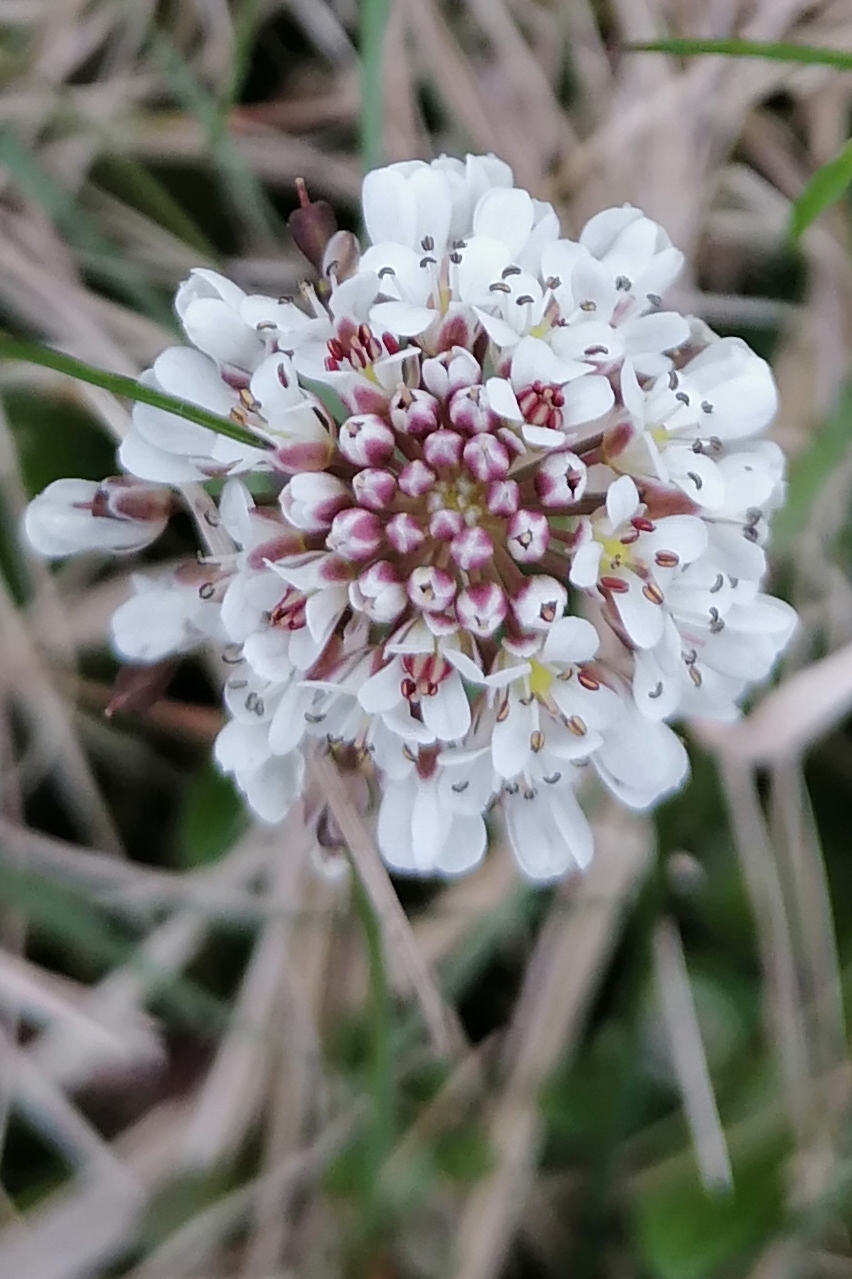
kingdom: Plantae
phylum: Tracheophyta
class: Magnoliopsida
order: Brassicales
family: Brassicaceae
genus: Noccaea
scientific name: Noccaea caerulescens
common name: Alpine pennycress
